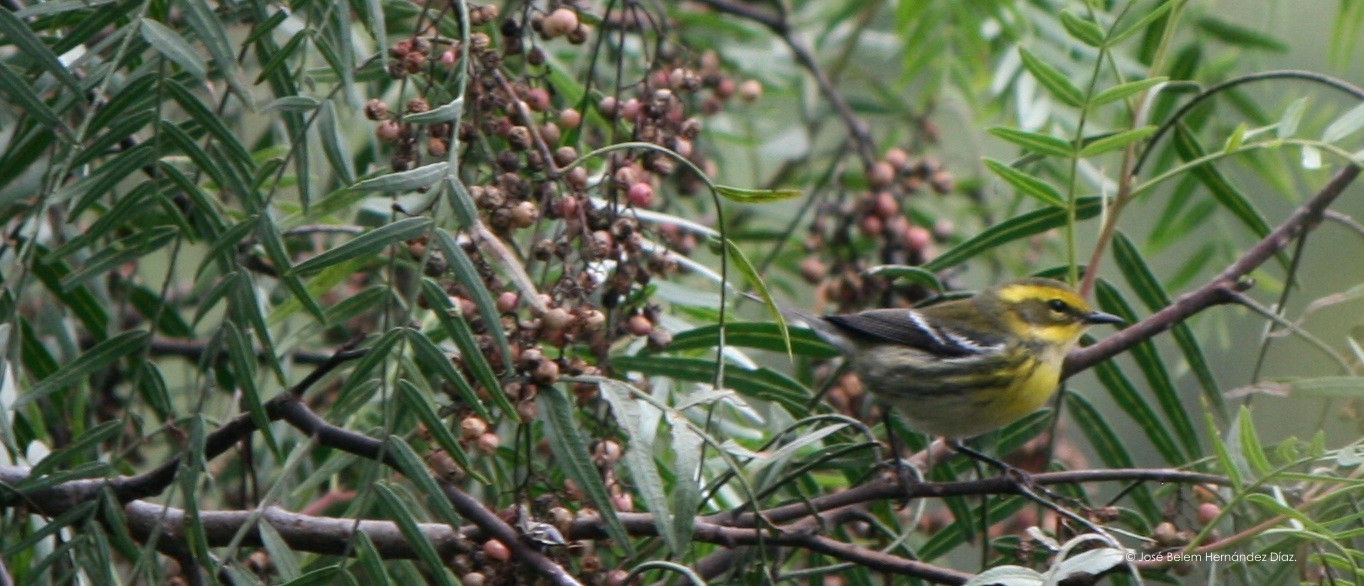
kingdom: Animalia
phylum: Chordata
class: Aves
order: Passeriformes
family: Parulidae
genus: Setophaga
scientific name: Setophaga townsendi
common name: Townsend's warbler
